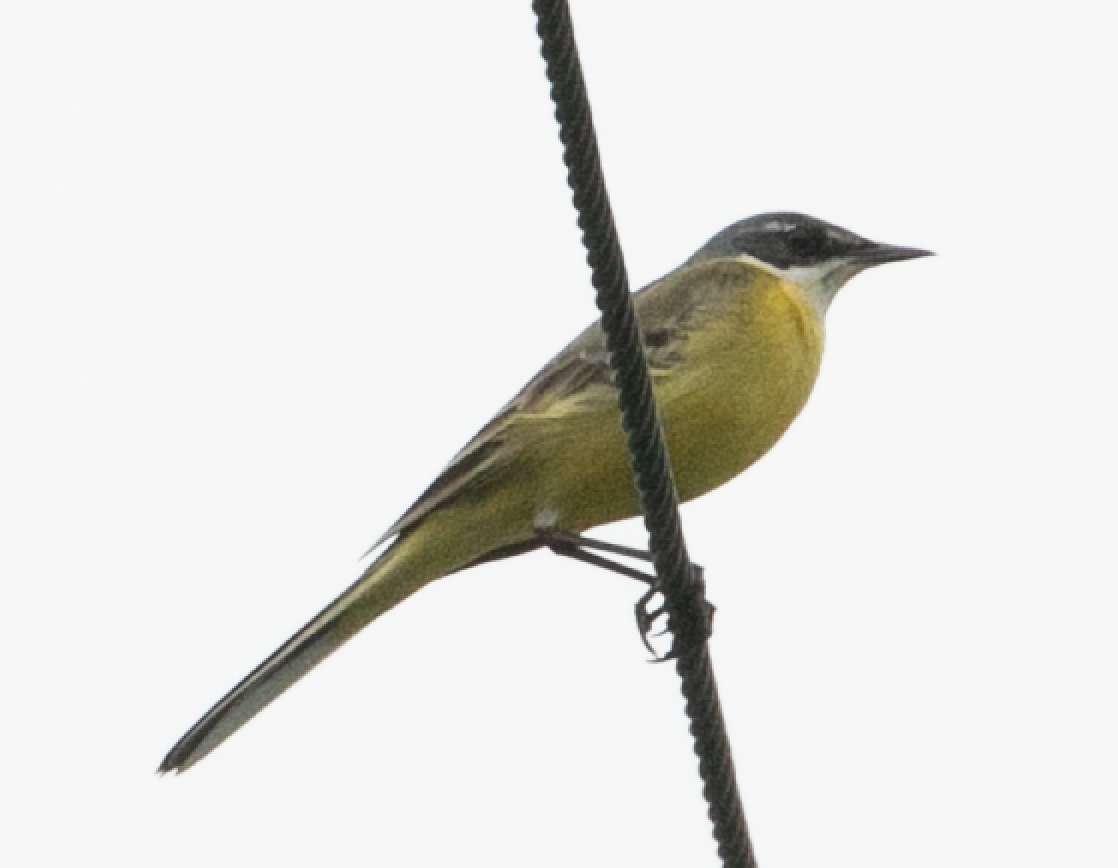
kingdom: Animalia
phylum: Chordata
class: Aves
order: Passeriformes
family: Motacillidae
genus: Motacilla
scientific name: Motacilla flava
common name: Western yellow wagtail
